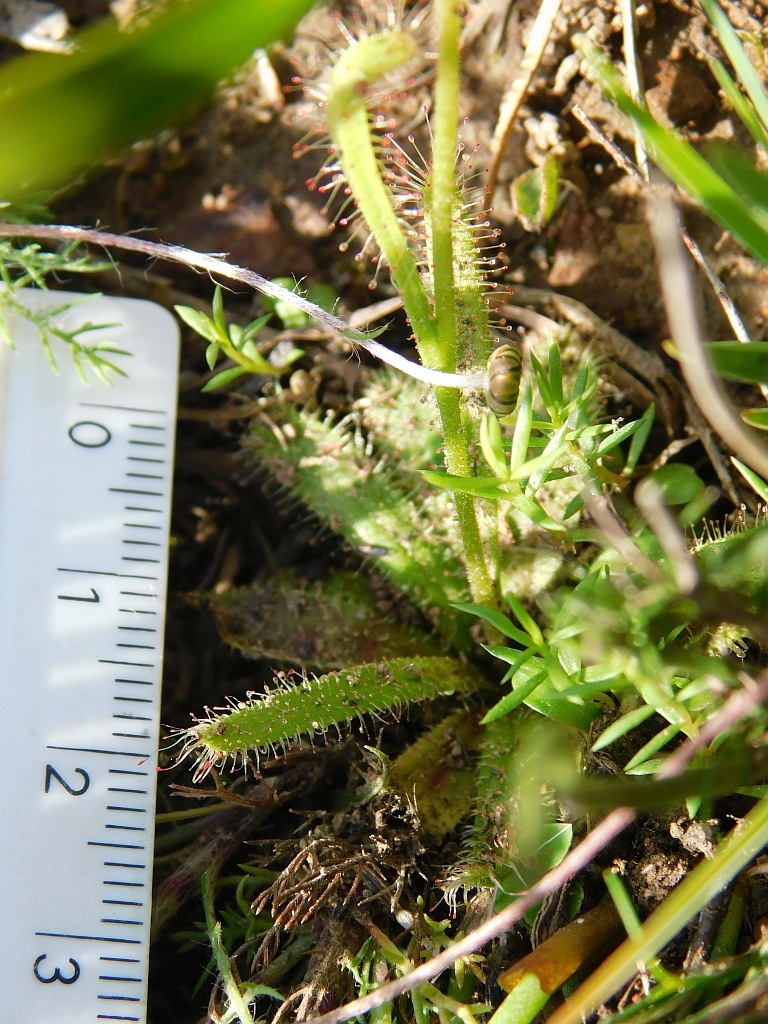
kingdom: Plantae
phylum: Tracheophyta
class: Magnoliopsida
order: Caryophyllales
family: Droseraceae
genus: Drosera
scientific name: Drosera cistiflora
